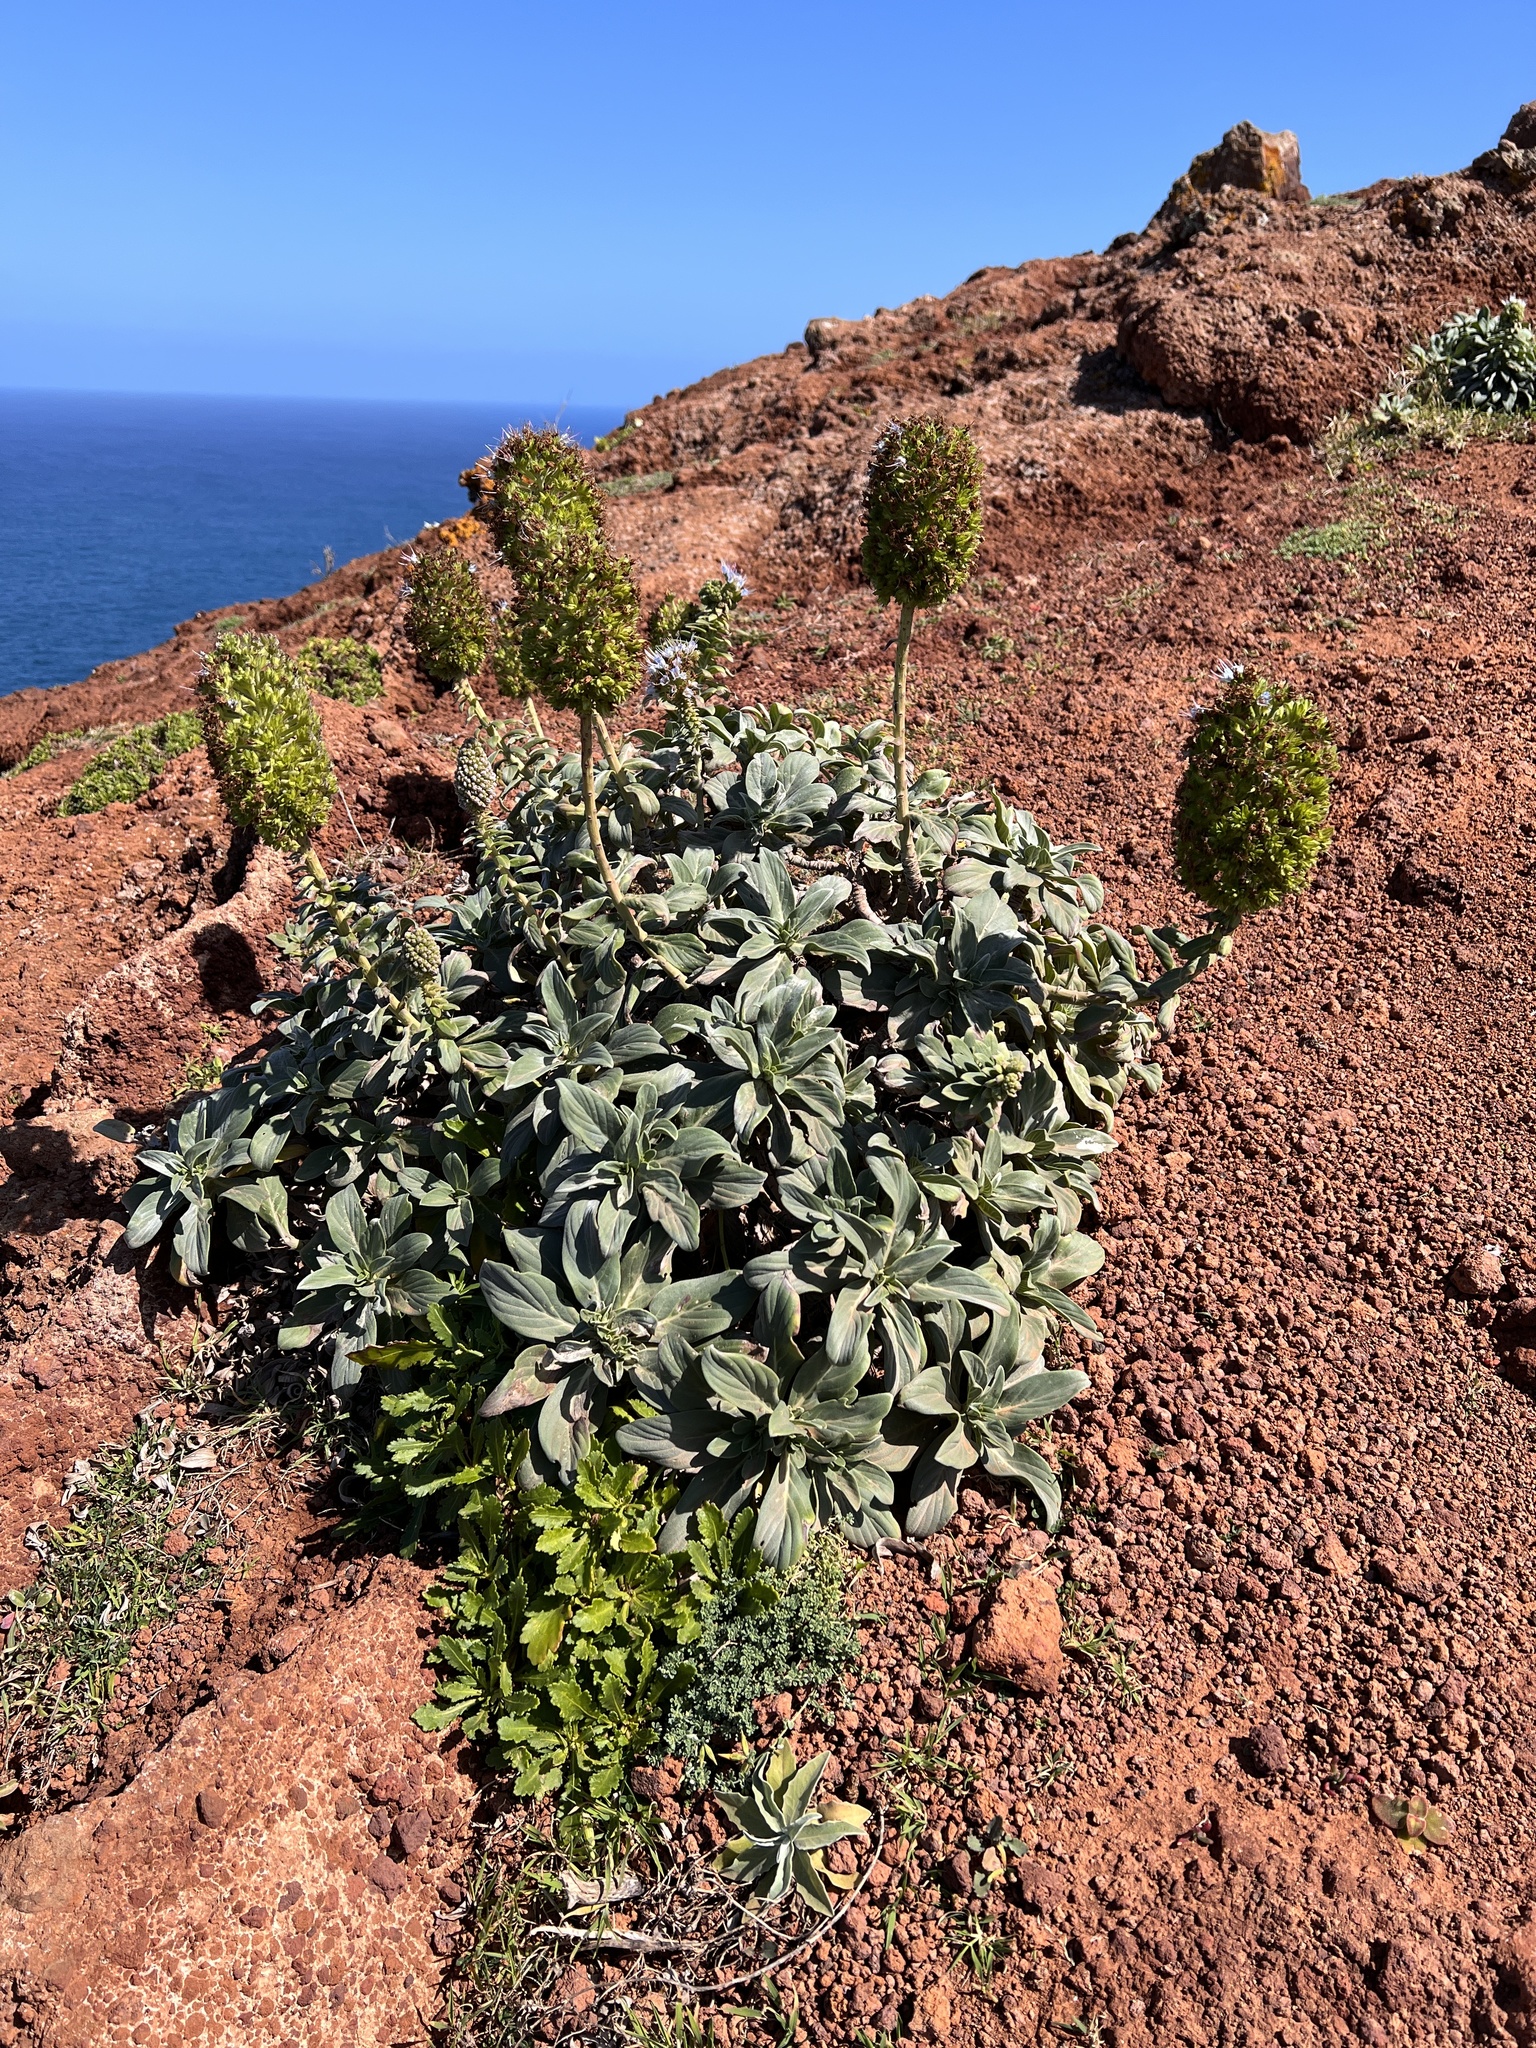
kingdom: Plantae
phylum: Tracheophyta
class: Magnoliopsida
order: Boraginales
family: Boraginaceae
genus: Echium
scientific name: Echium nervosum
